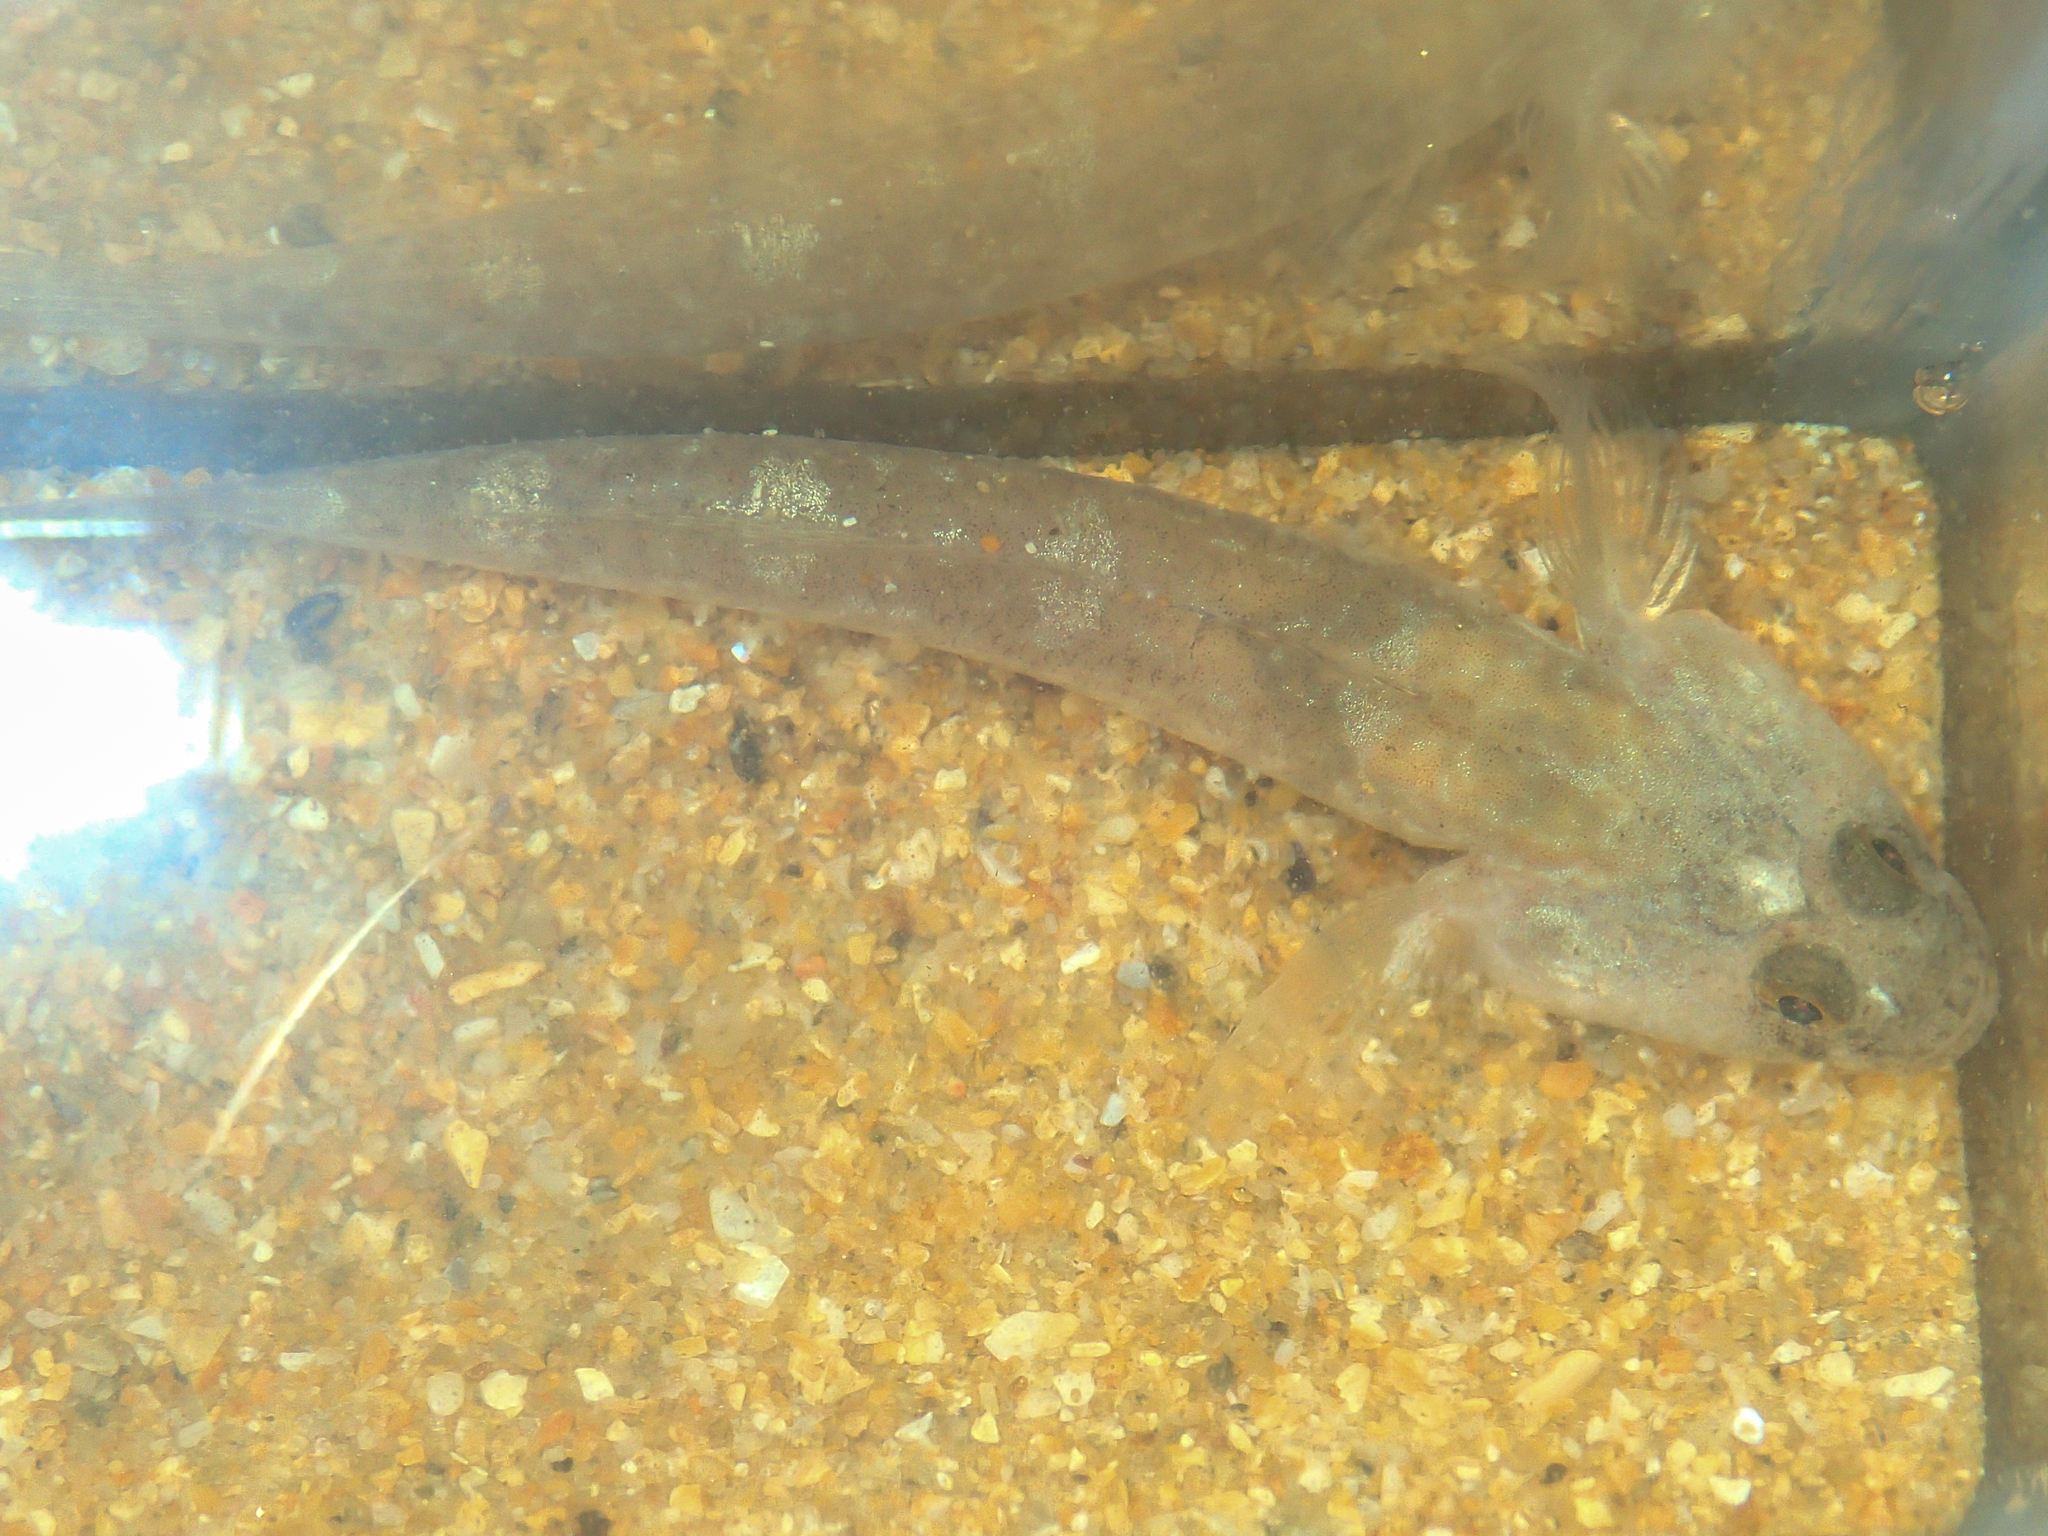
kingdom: Animalia
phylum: Chordata
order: Perciformes
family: Gobiidae
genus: Pomatoschistus
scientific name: Pomatoschistus microps
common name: Common goby
